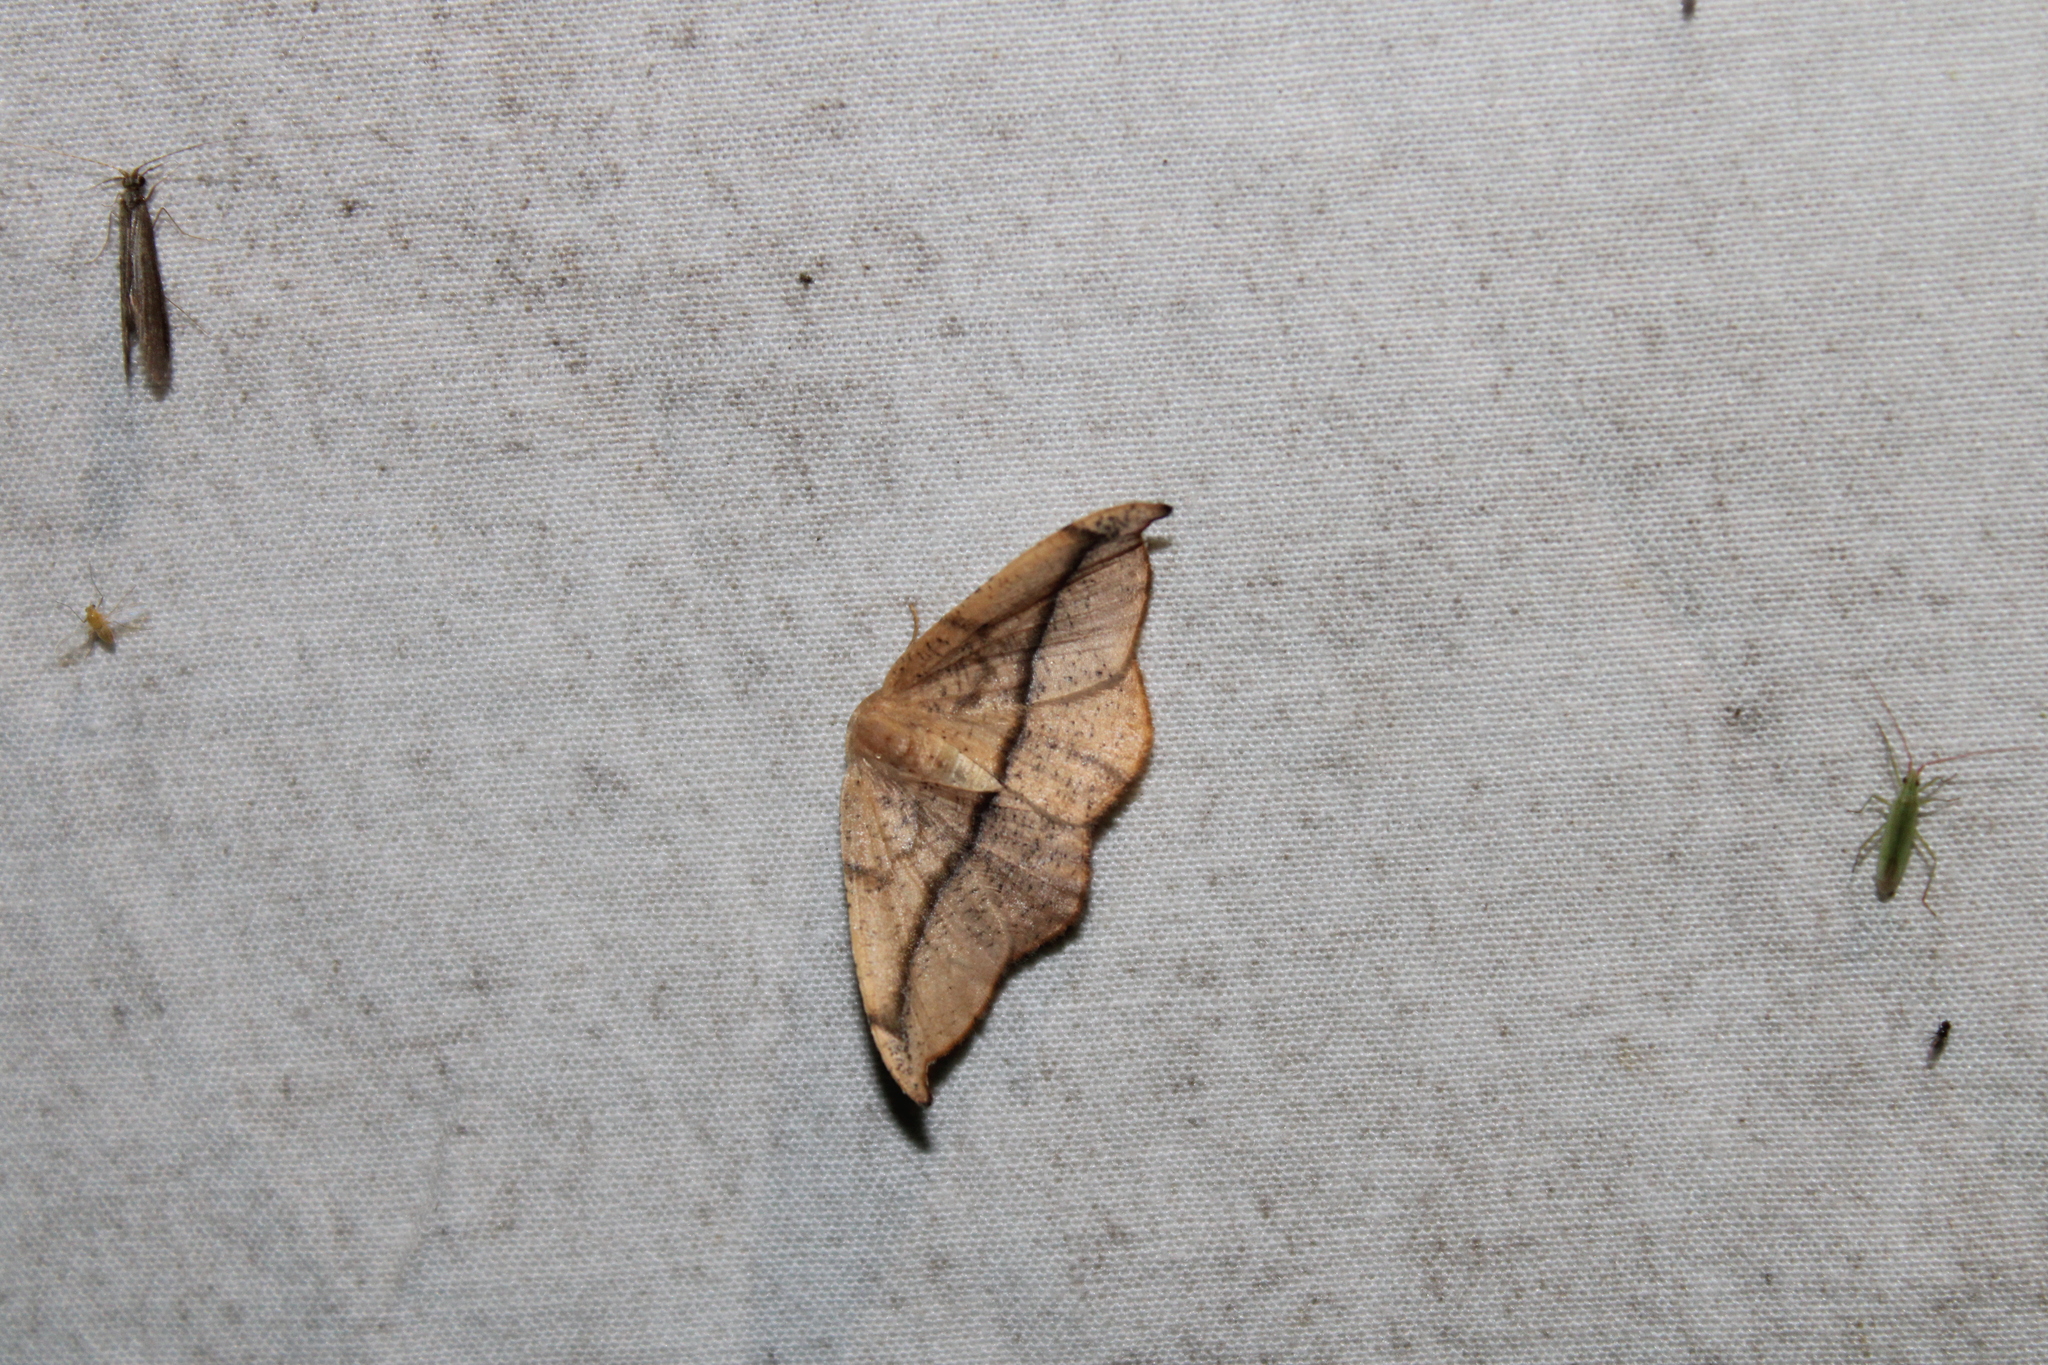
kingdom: Animalia
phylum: Arthropoda
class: Insecta
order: Lepidoptera
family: Geometridae
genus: Patalene
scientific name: Patalene olyzonaria
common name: Juniper geometer moth
